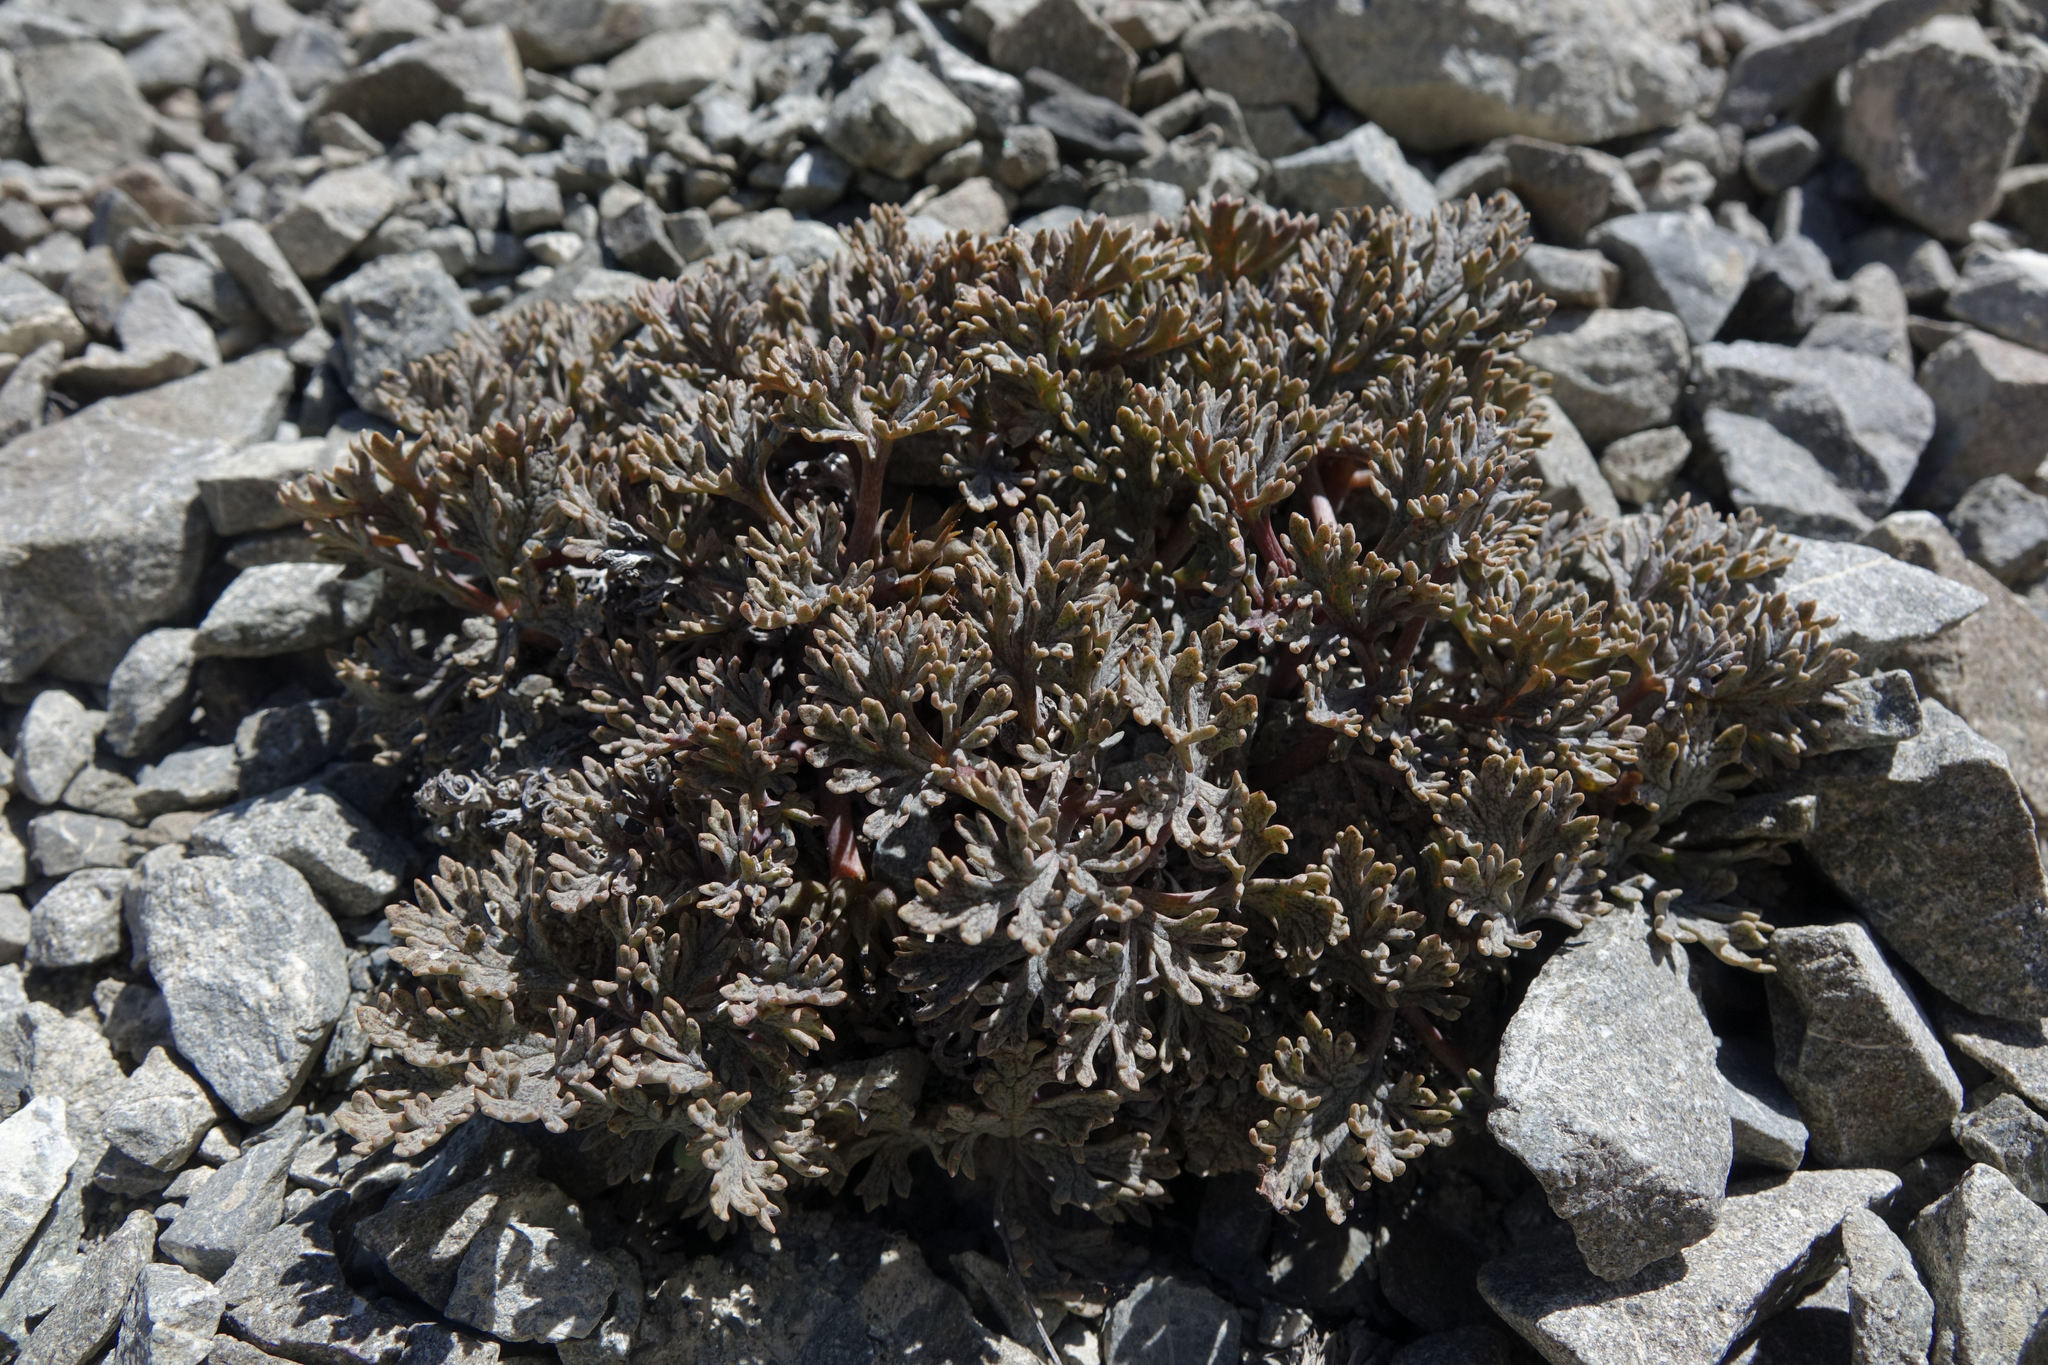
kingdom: Plantae
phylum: Tracheophyta
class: Magnoliopsida
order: Ranunculales
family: Ranunculaceae
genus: Ranunculus
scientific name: Ranunculus crithmifolius
